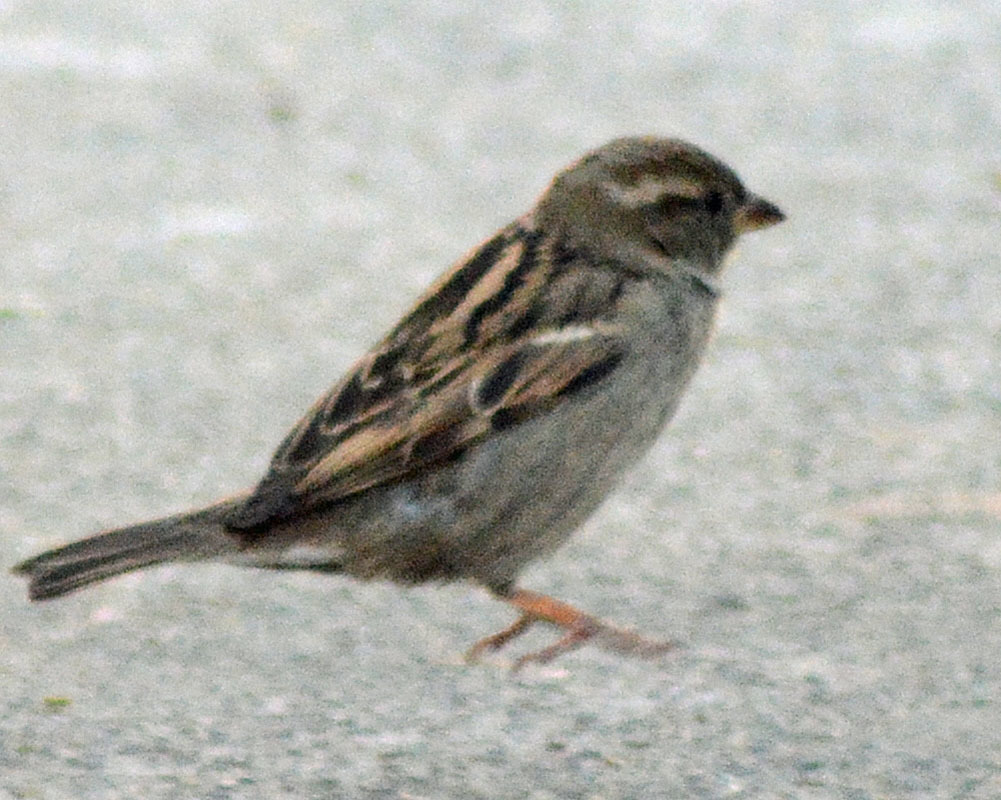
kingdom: Animalia
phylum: Chordata
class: Aves
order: Passeriformes
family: Passeridae
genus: Passer
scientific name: Passer domesticus
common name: House sparrow
